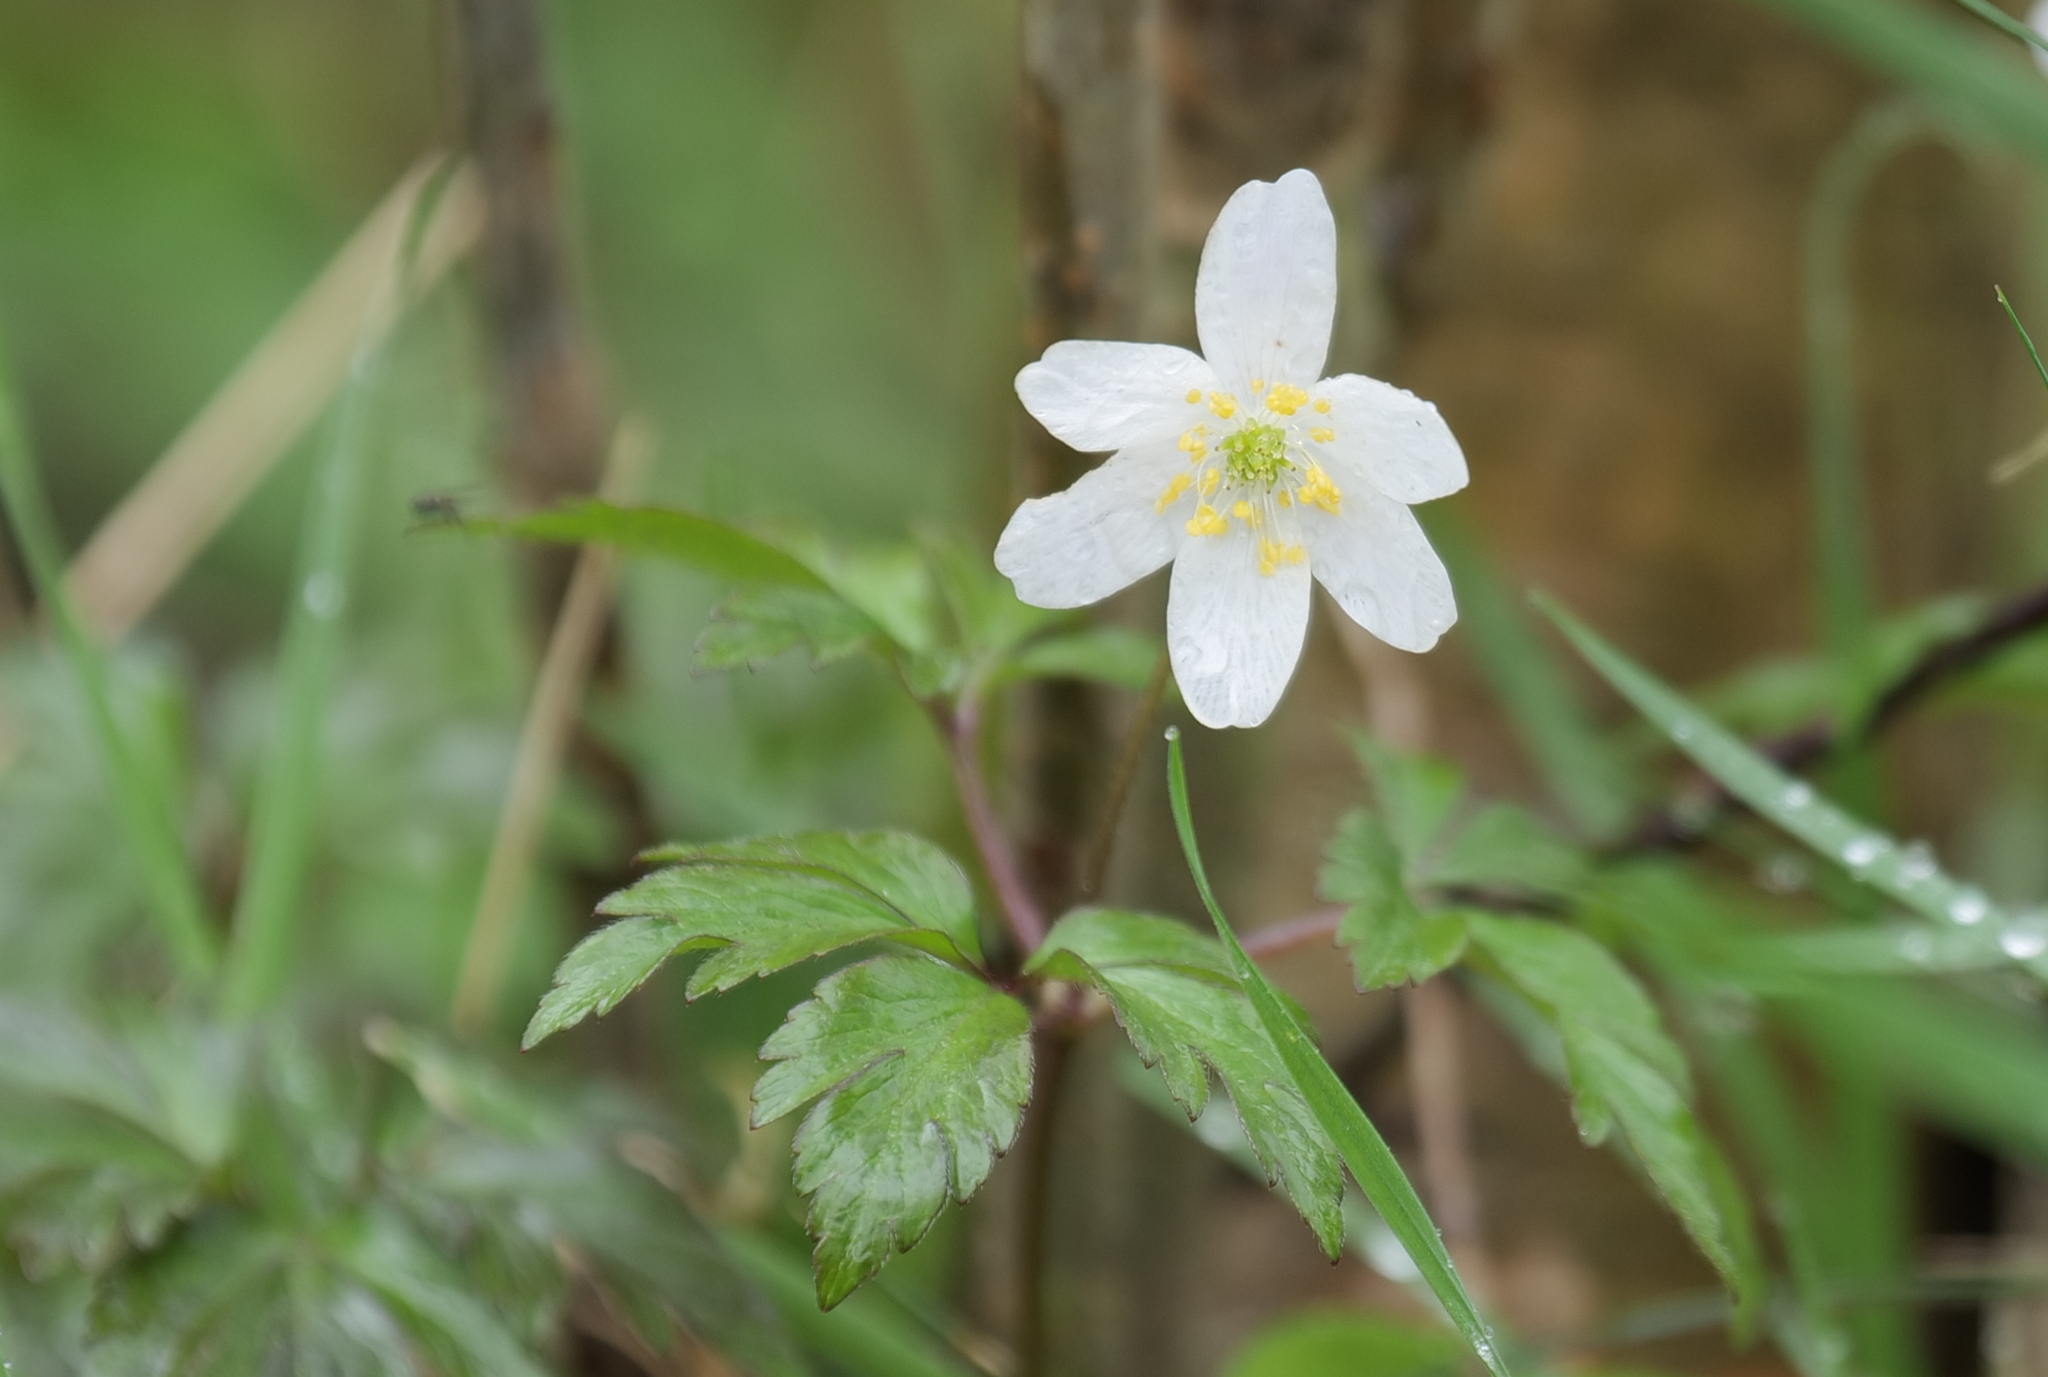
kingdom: Plantae
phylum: Tracheophyta
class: Magnoliopsida
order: Ranunculales
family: Ranunculaceae
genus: Anemone
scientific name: Anemone nemorosa
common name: Wood anemone
